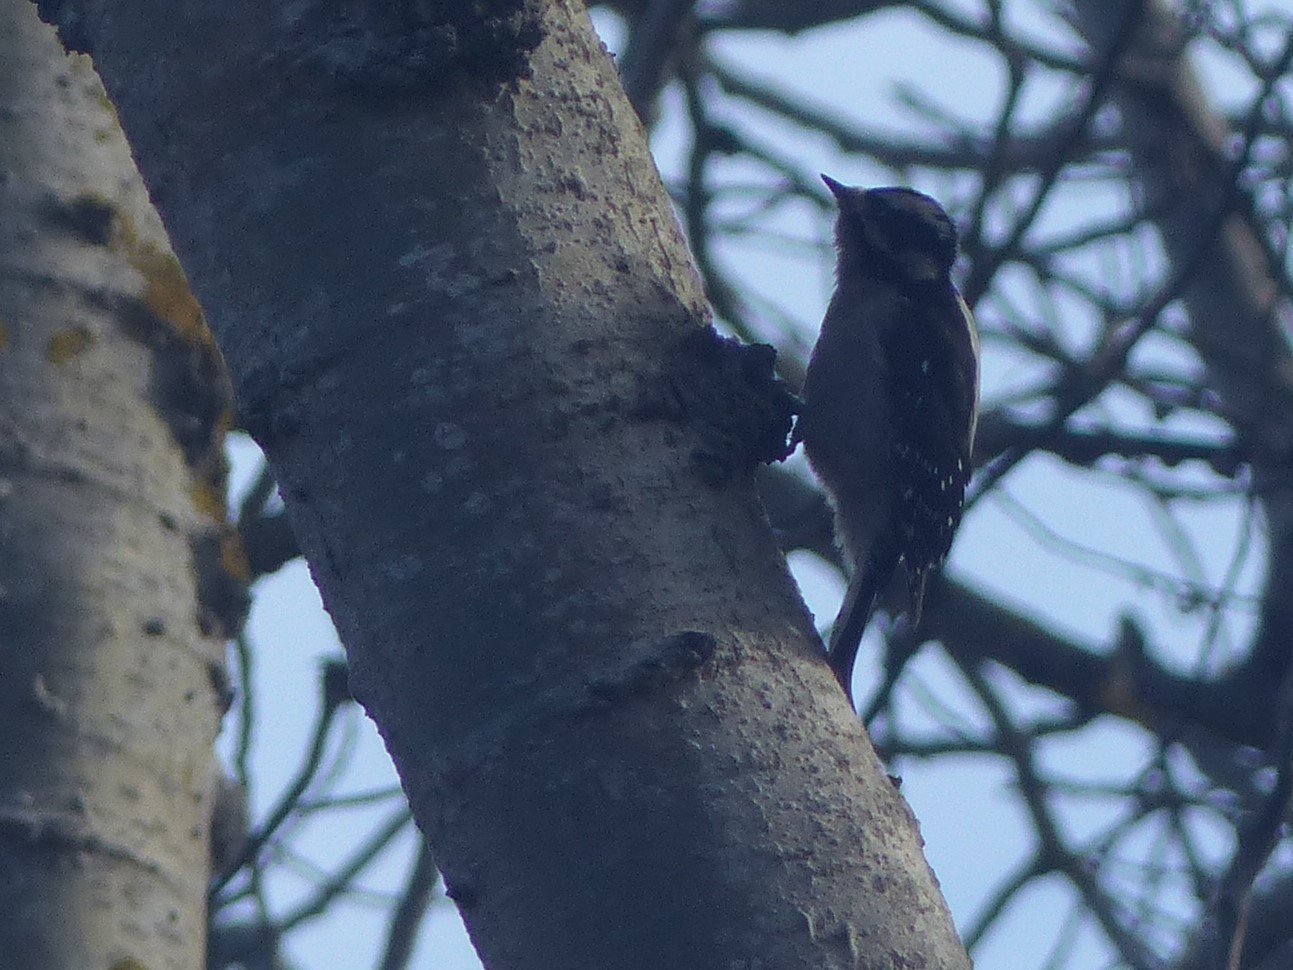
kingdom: Animalia
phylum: Chordata
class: Aves
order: Piciformes
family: Picidae
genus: Dryobates
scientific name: Dryobates pubescens
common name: Downy woodpecker
